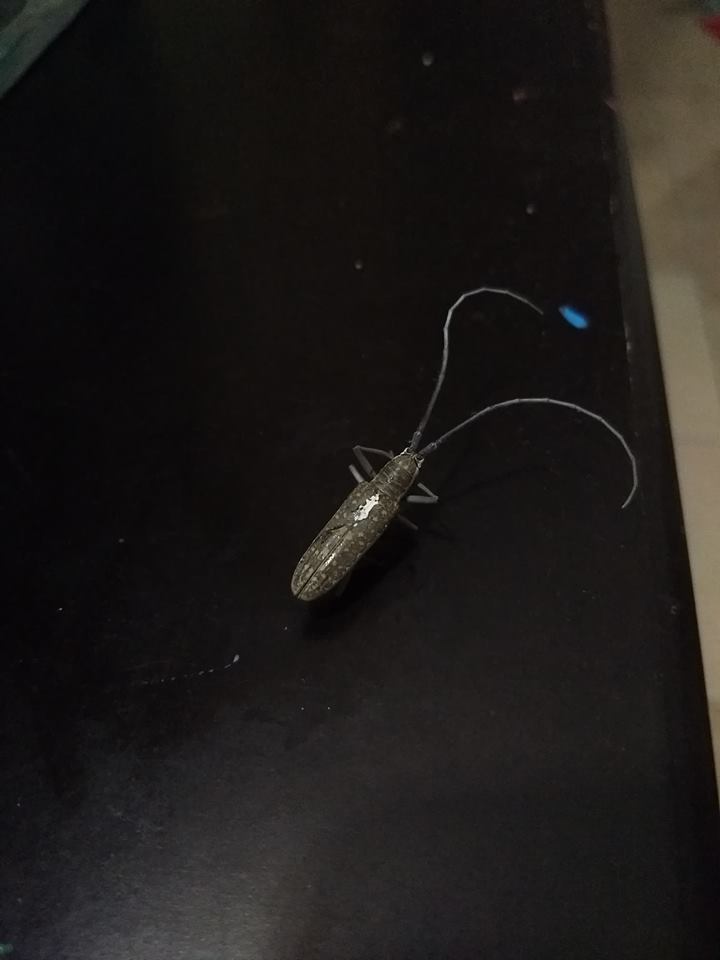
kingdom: Animalia
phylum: Arthropoda
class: Insecta
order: Coleoptera
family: Cerambycidae
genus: Neoptychodes
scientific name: Neoptychodes trilineatus
